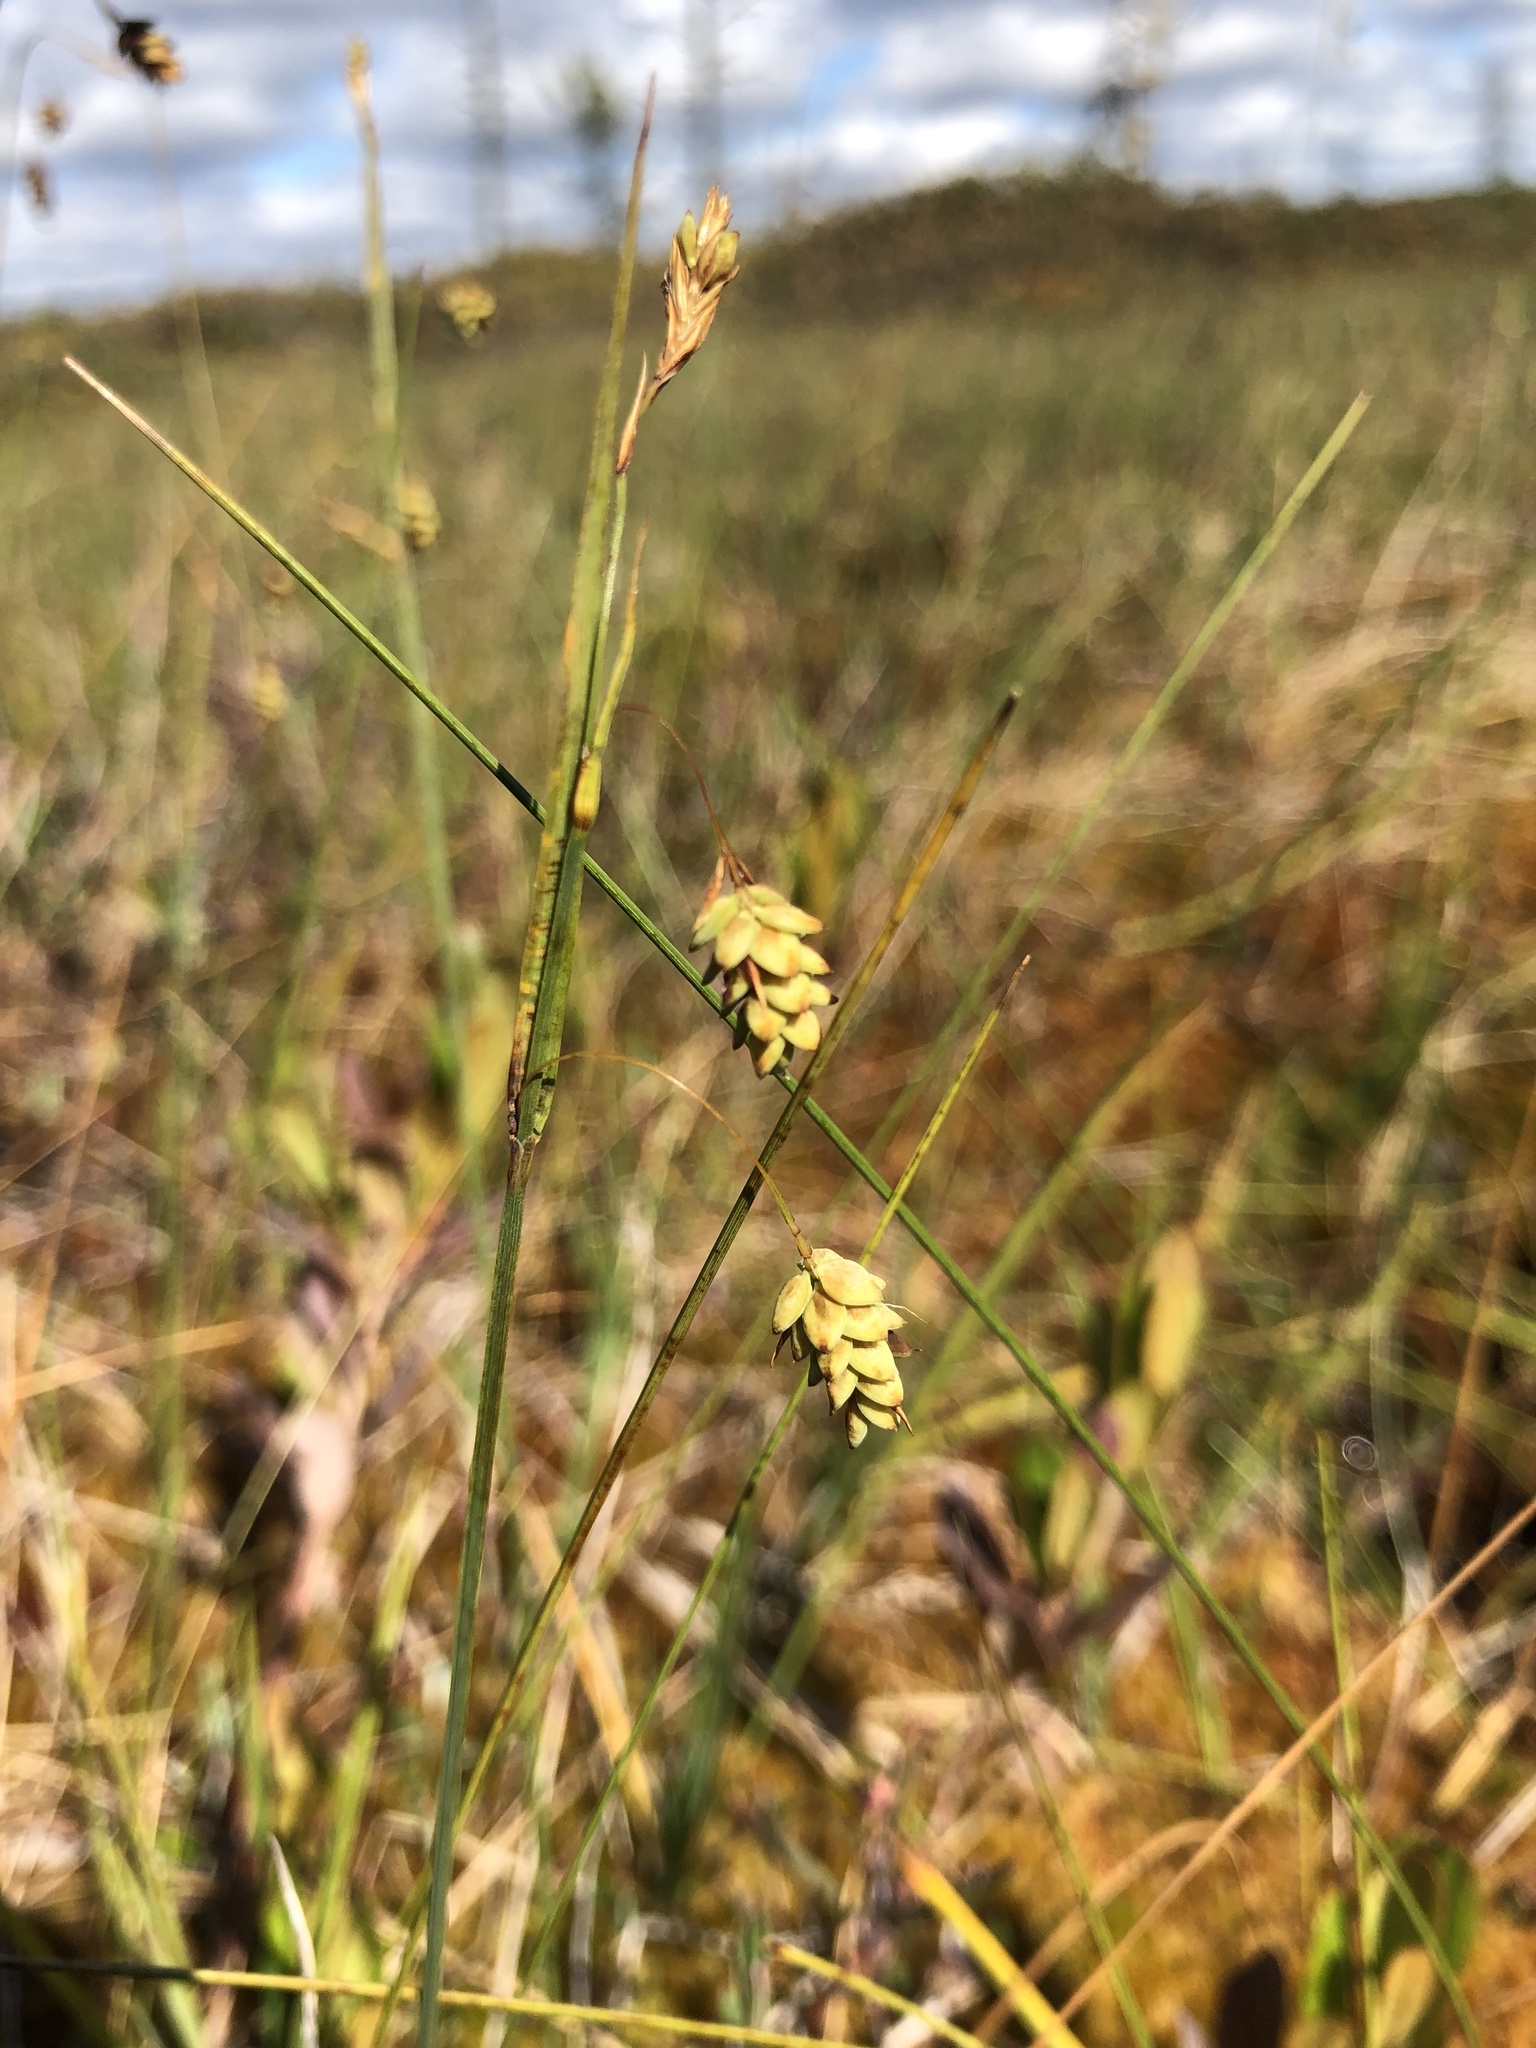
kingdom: Plantae
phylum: Tracheophyta
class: Liliopsida
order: Poales
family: Cyperaceae
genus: Carex
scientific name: Carex limosa
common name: Bog sedge
